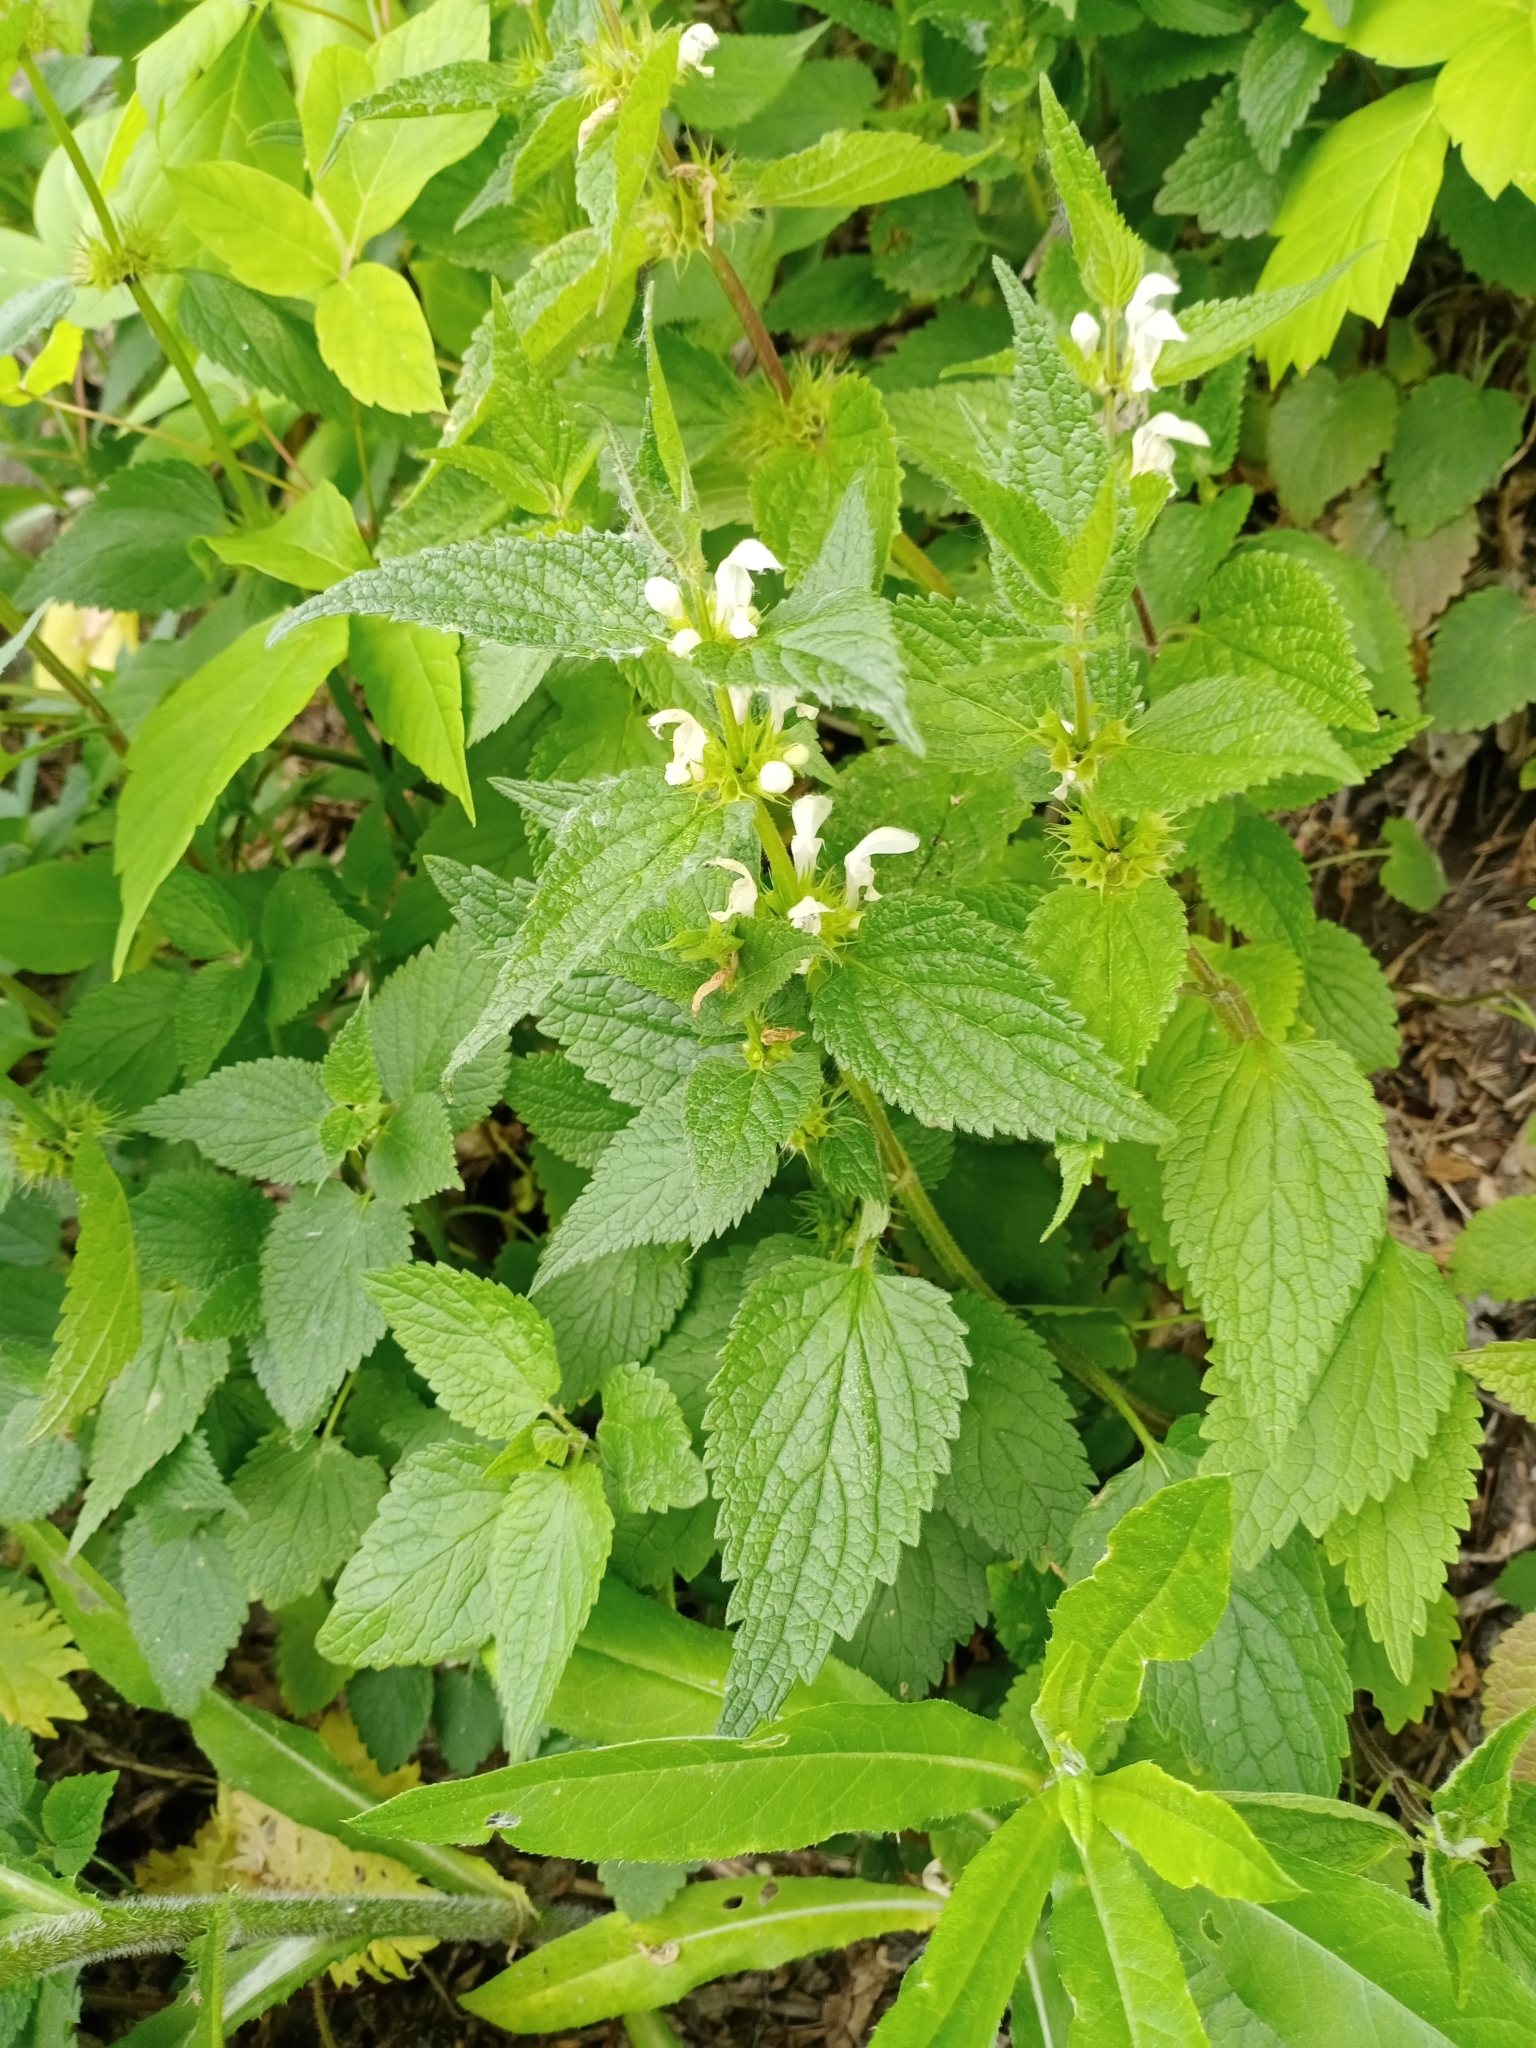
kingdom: Plantae
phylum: Tracheophyta
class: Magnoliopsida
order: Lamiales
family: Lamiaceae
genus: Lamium
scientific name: Lamium album
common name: White dead-nettle
